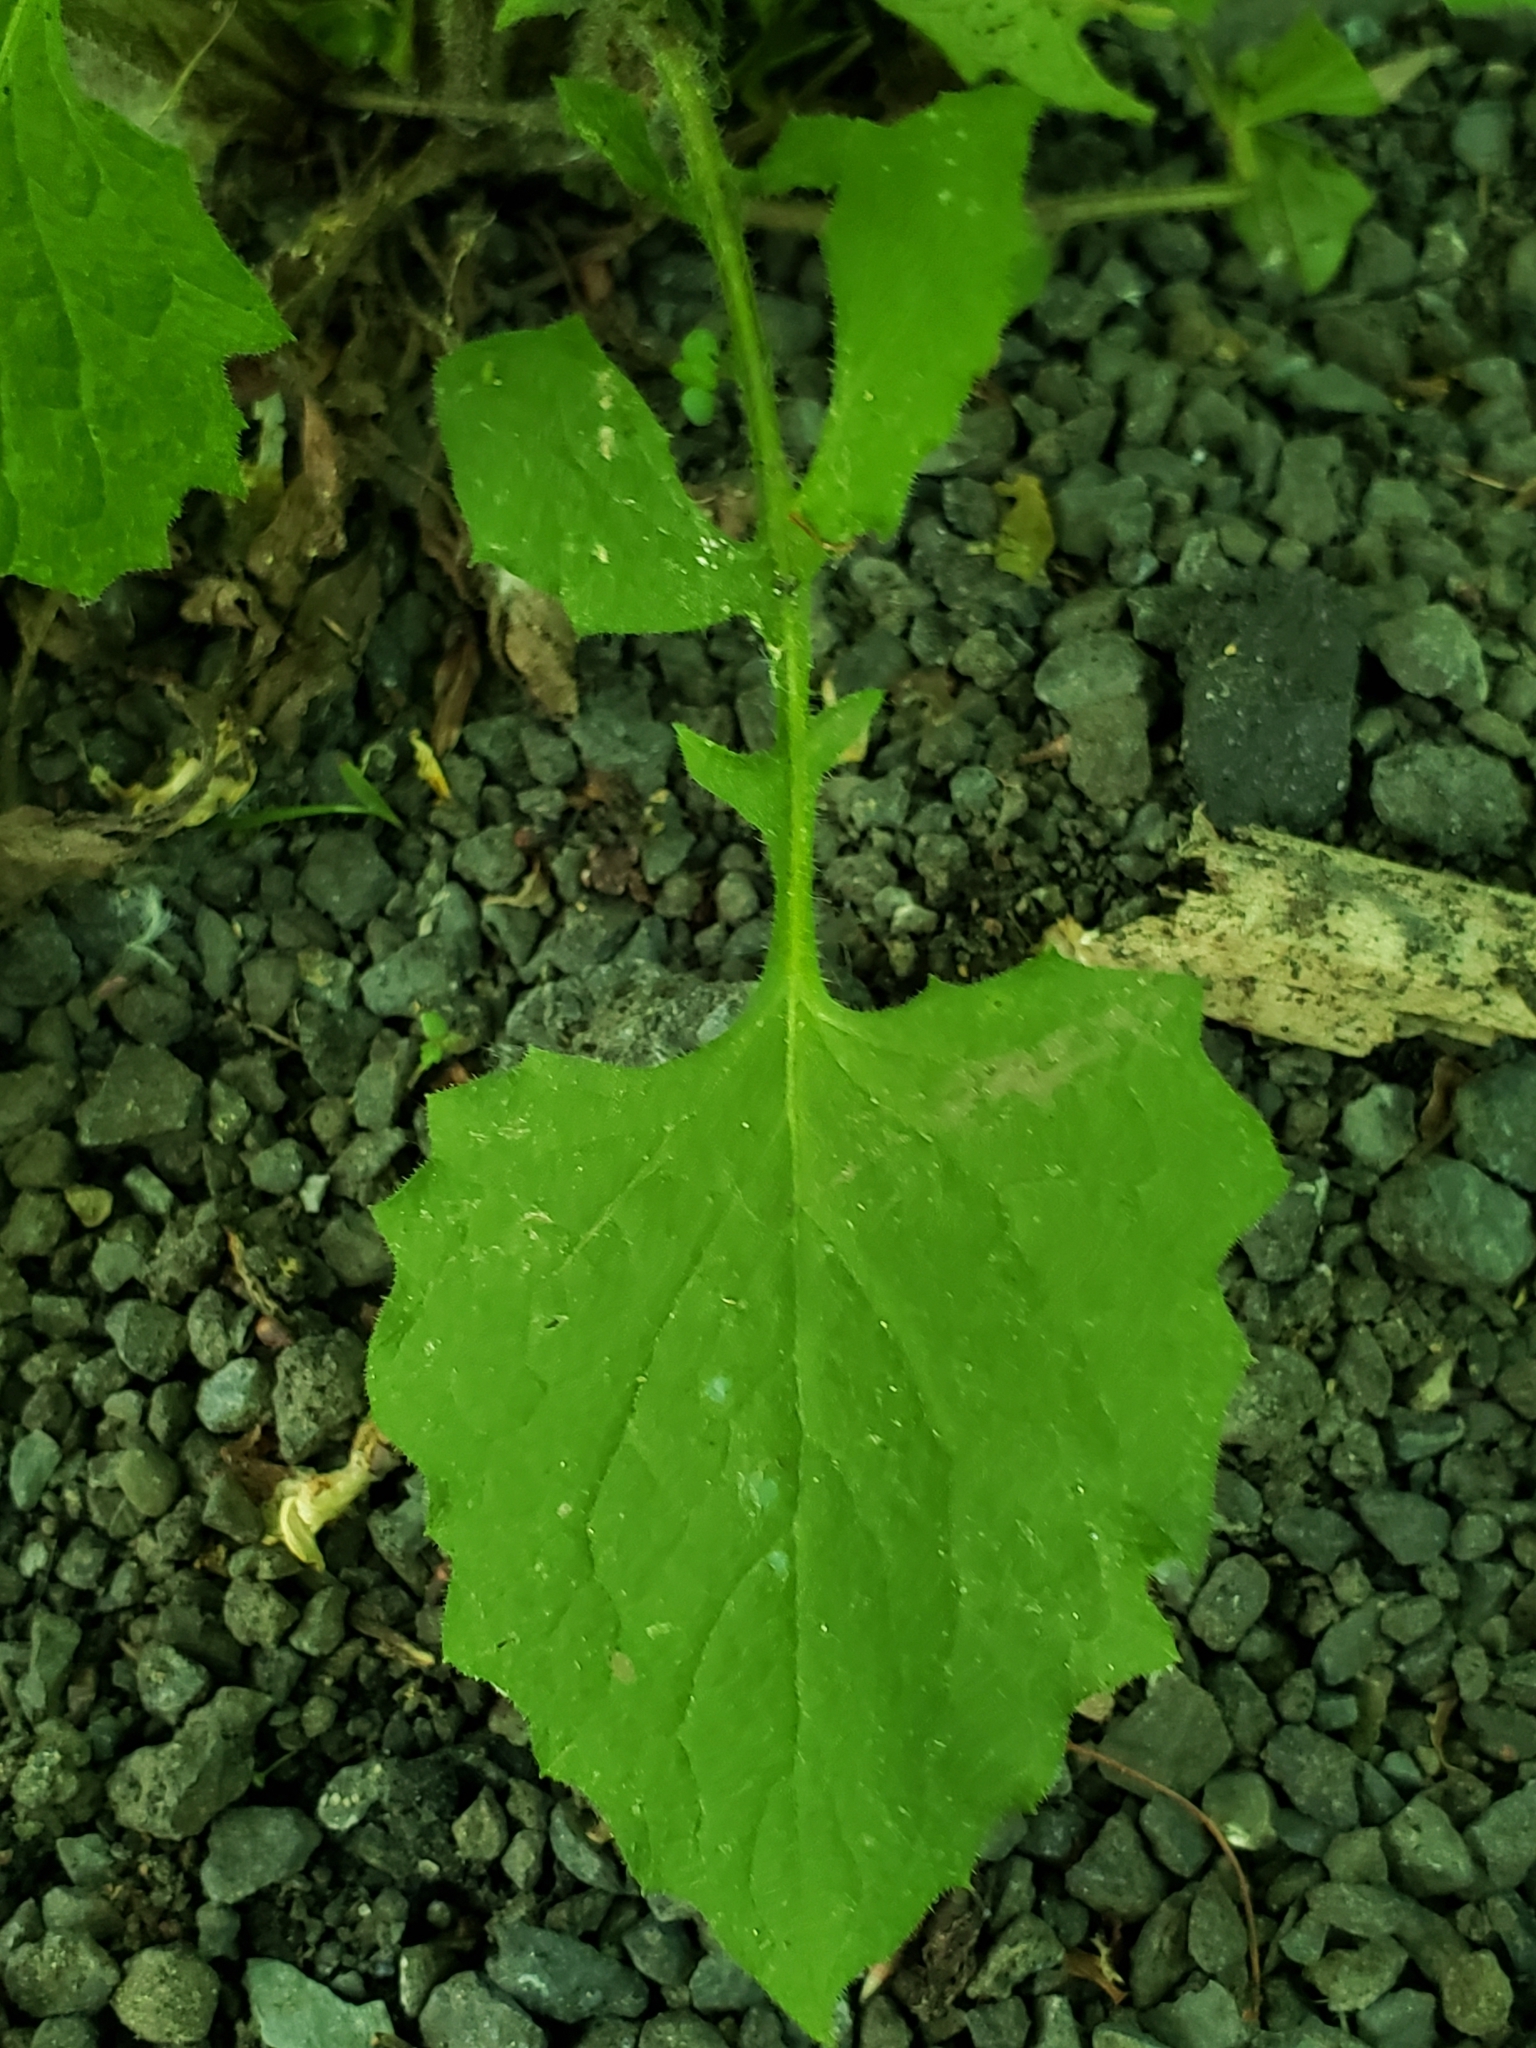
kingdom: Plantae
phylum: Tracheophyta
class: Magnoliopsida
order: Asterales
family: Asteraceae
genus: Lapsana
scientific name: Lapsana communis
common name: Nipplewort
